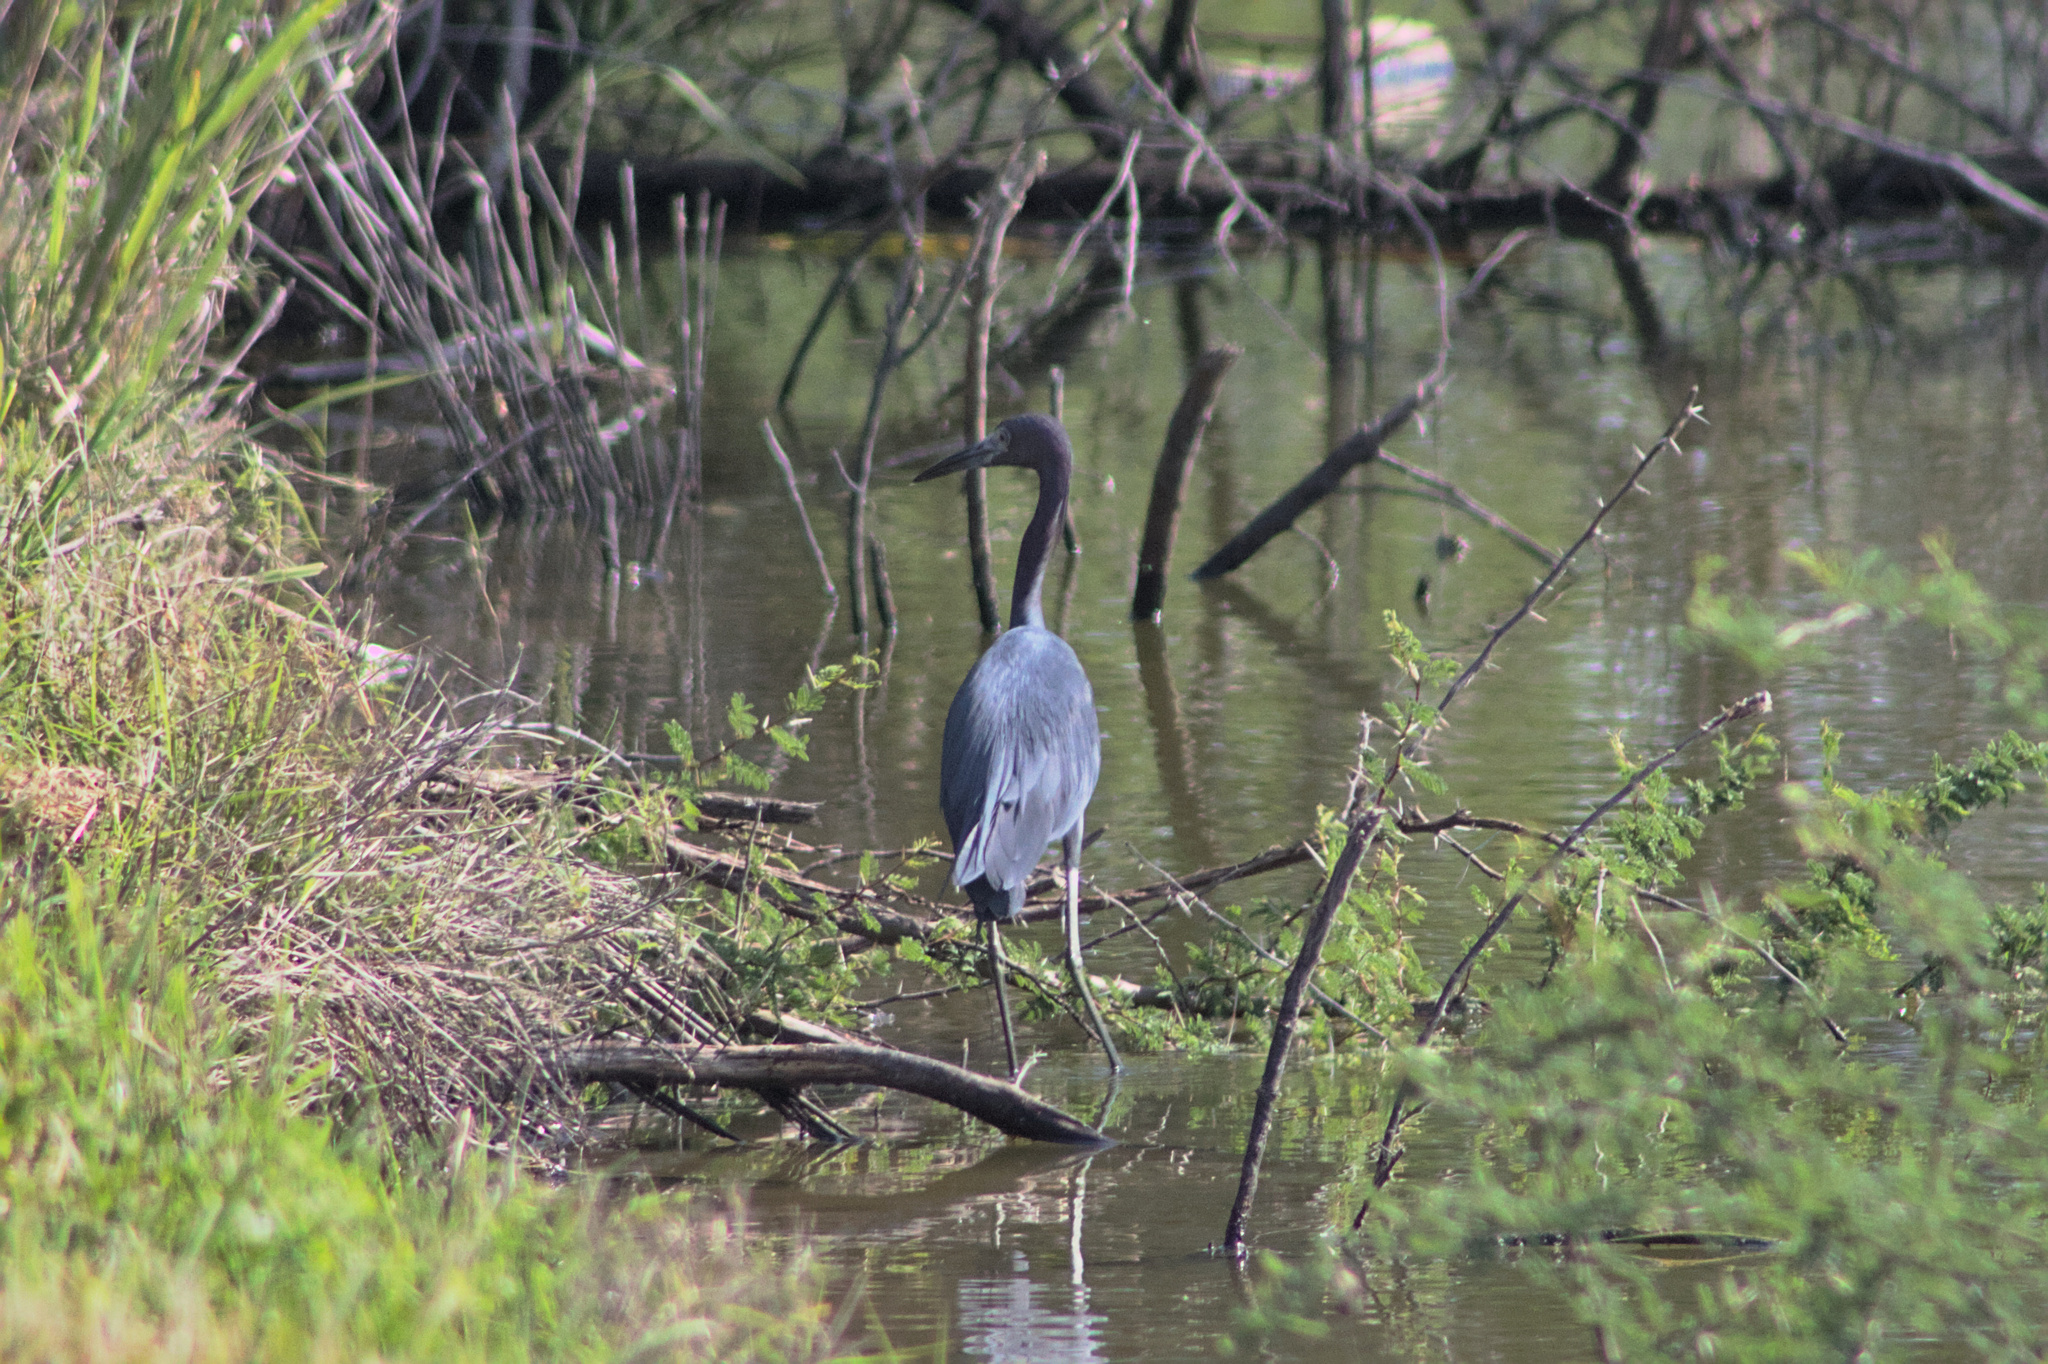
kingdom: Animalia
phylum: Chordata
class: Aves
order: Pelecaniformes
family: Ardeidae
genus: Egretta
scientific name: Egretta caerulea
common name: Little blue heron
